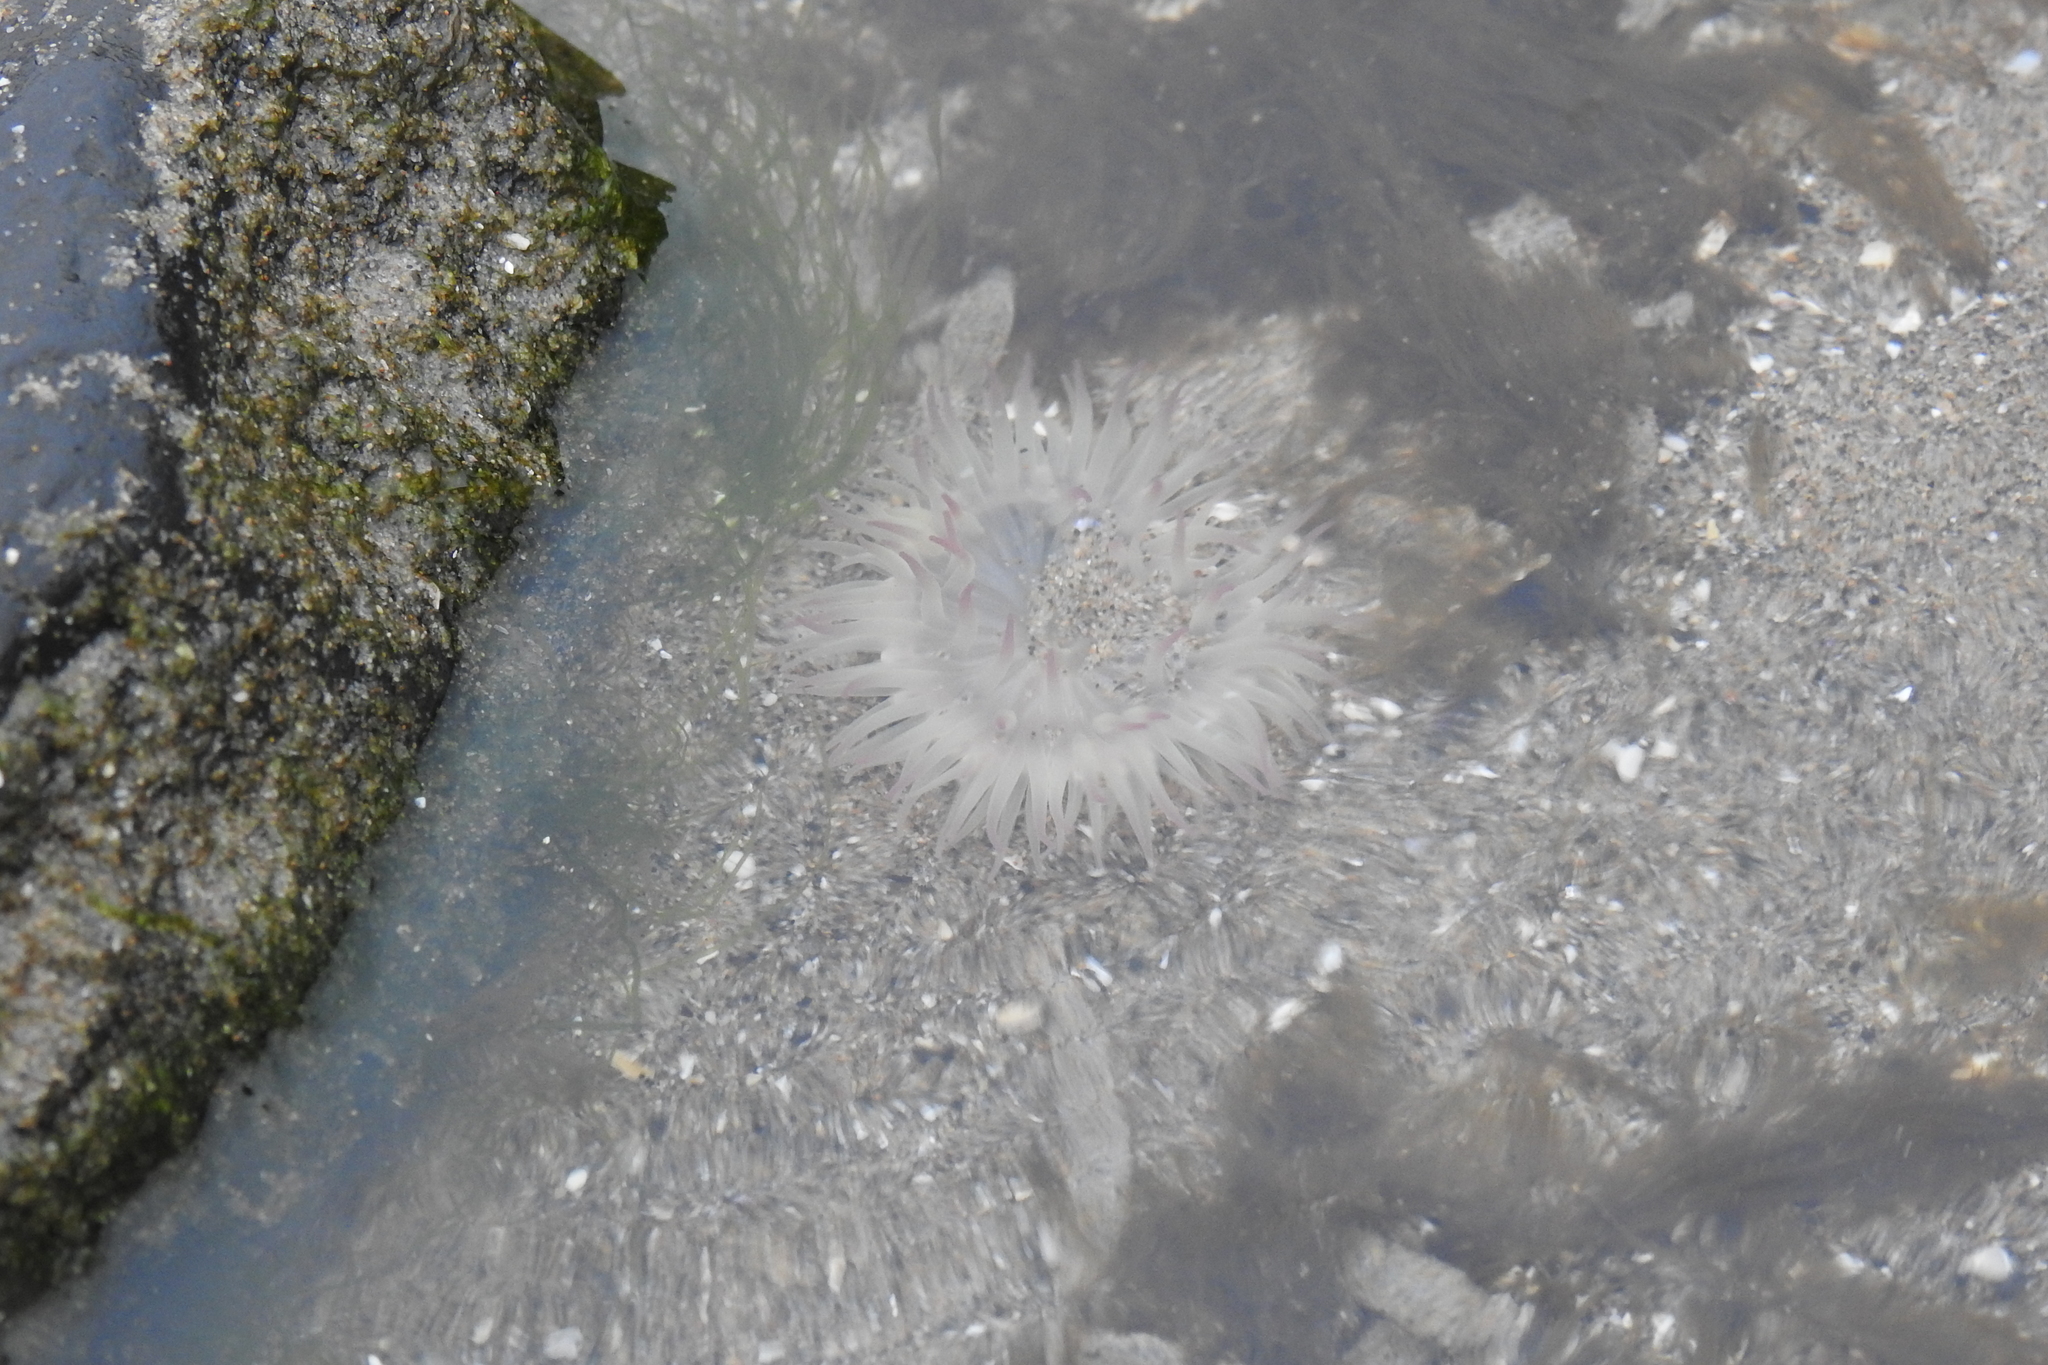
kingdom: Animalia
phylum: Cnidaria
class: Anthozoa
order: Actiniaria
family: Actiniidae
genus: Anthopleura
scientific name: Anthopleura elegantissima
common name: Clonal anemone
